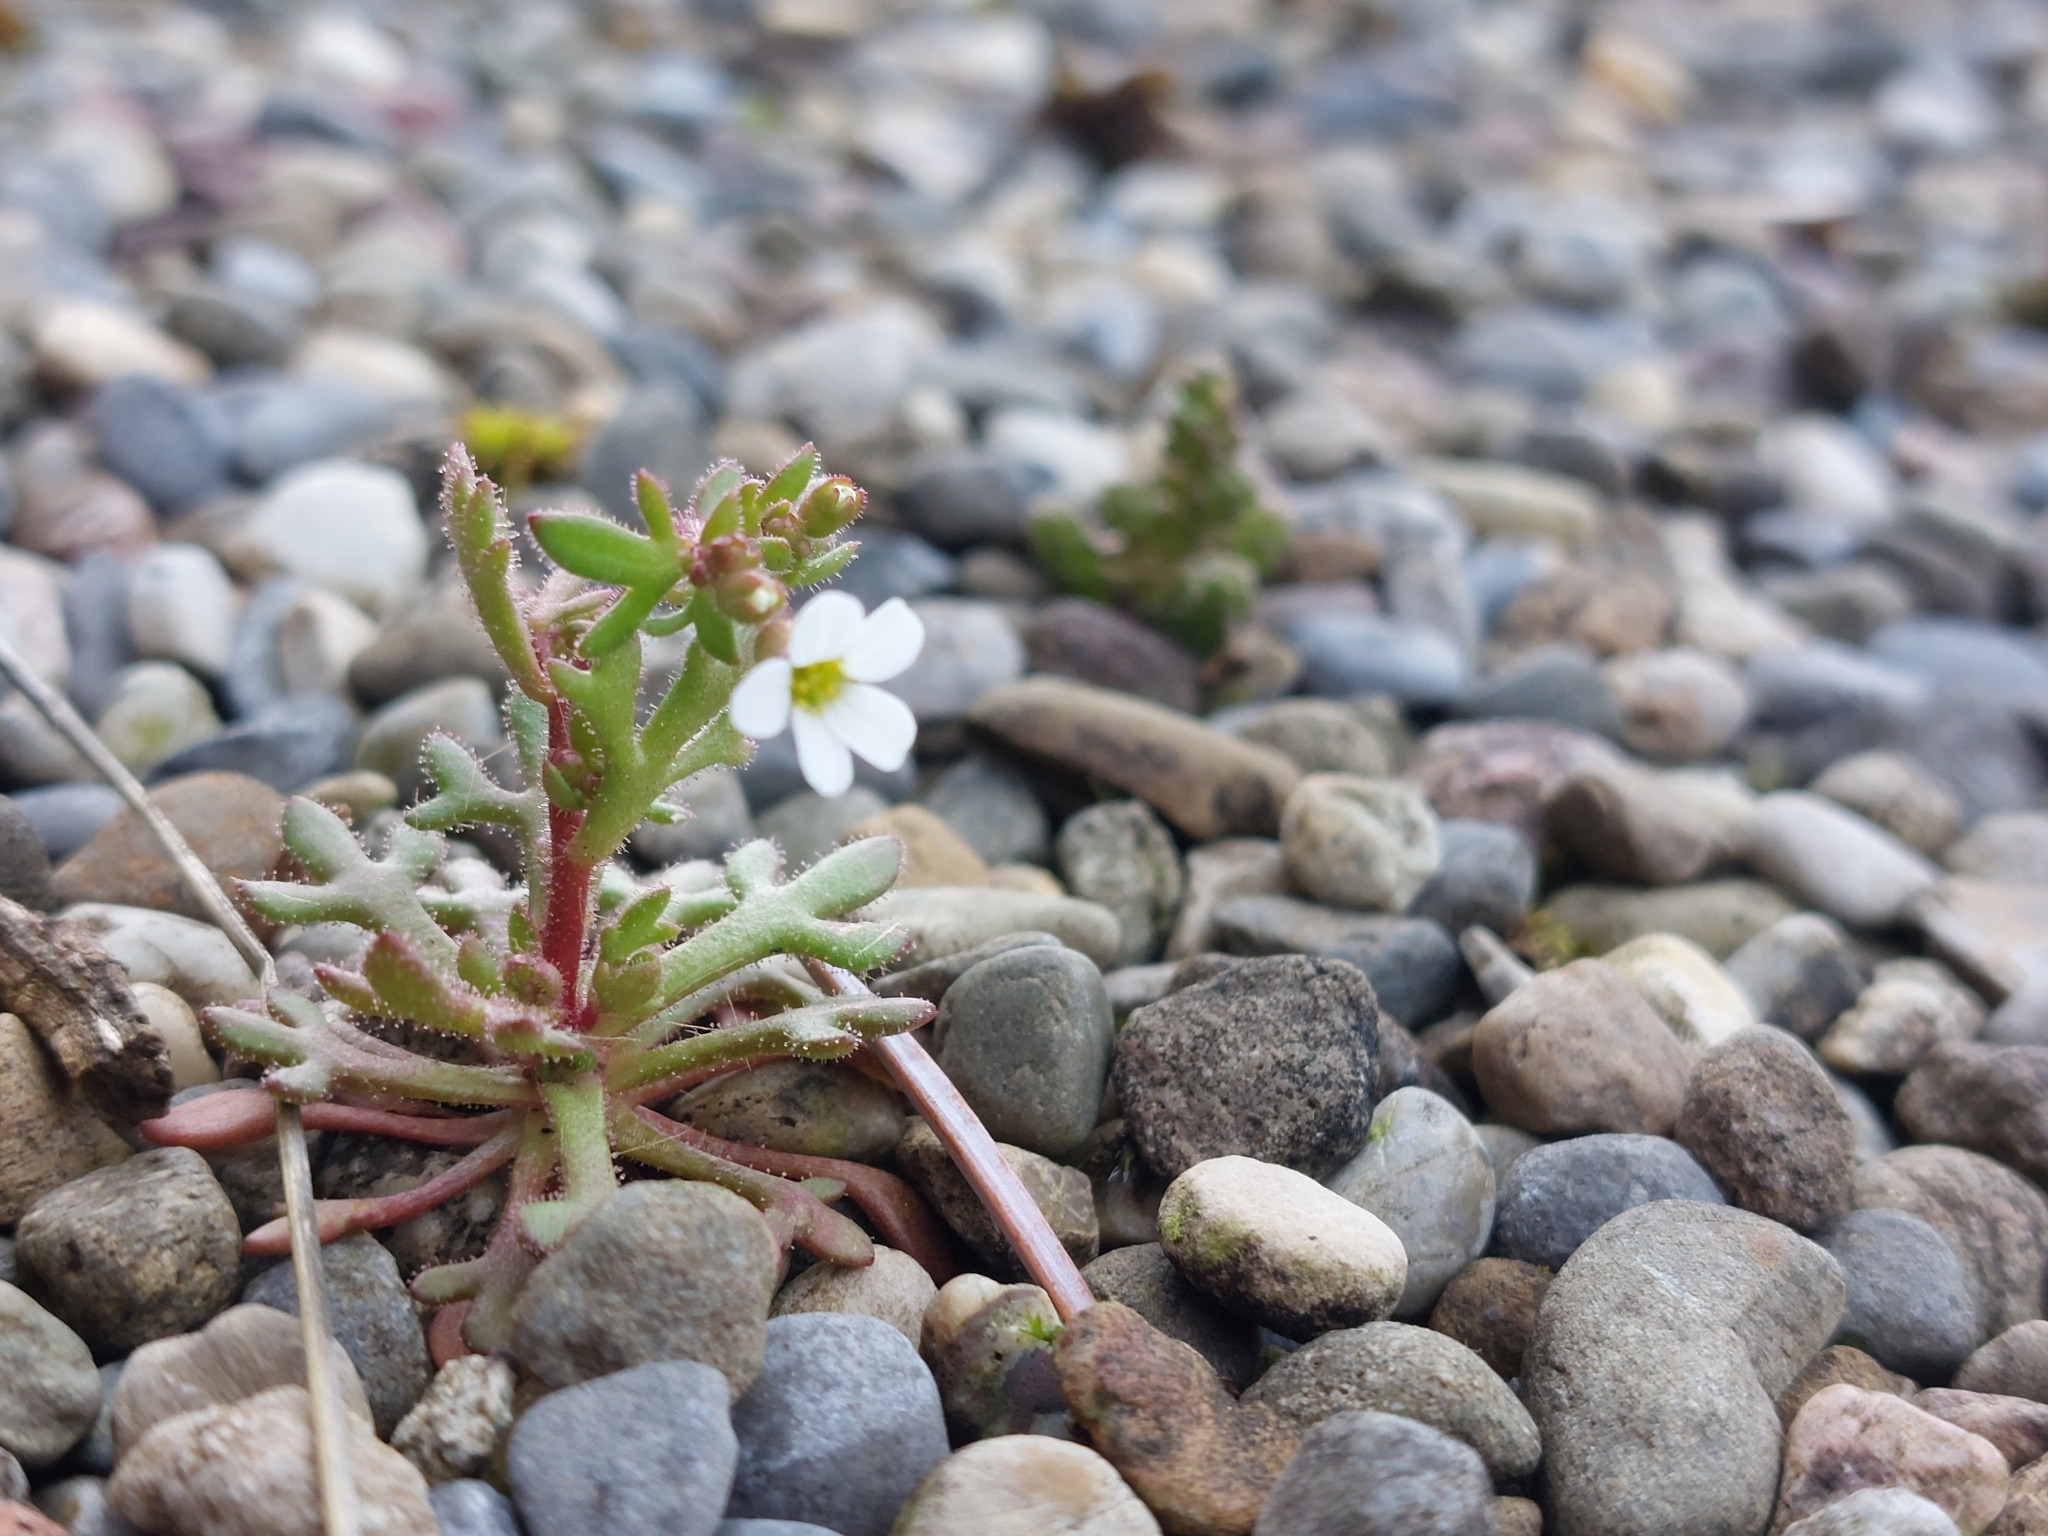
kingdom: Plantae
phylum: Tracheophyta
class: Magnoliopsida
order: Saxifragales
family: Saxifragaceae
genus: Saxifraga
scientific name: Saxifraga tridactylites
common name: Rue-leaved saxifrage
